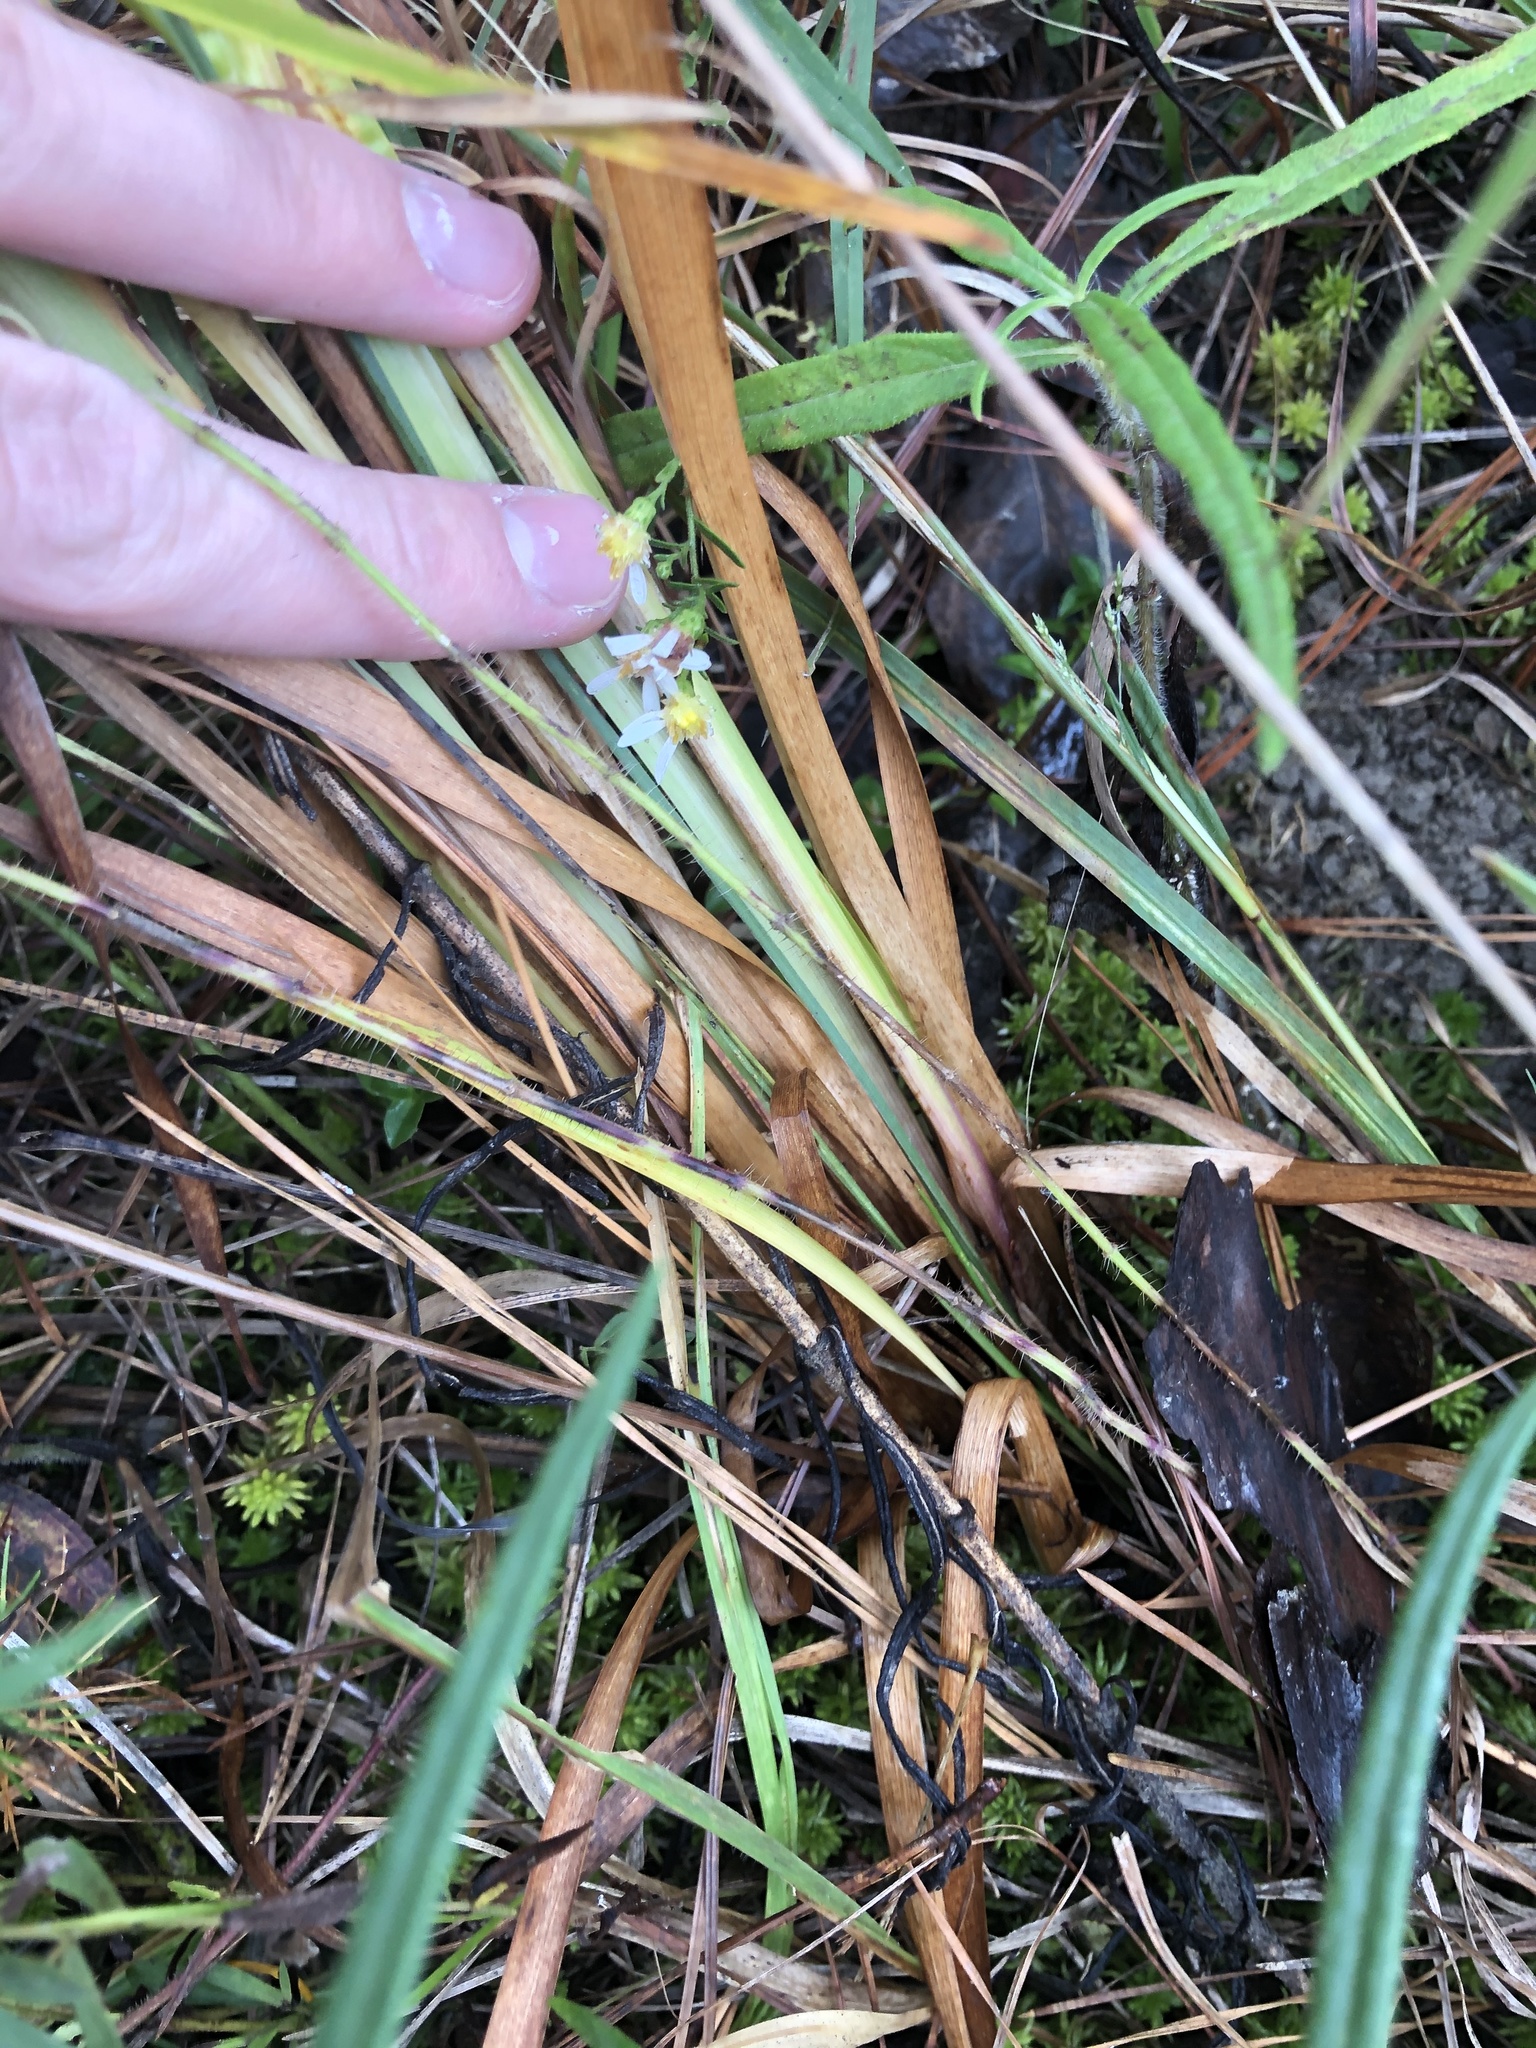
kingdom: Plantae
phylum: Tracheophyta
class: Liliopsida
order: Poales
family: Xyridaceae
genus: Xyris
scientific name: Xyris laxifolia
